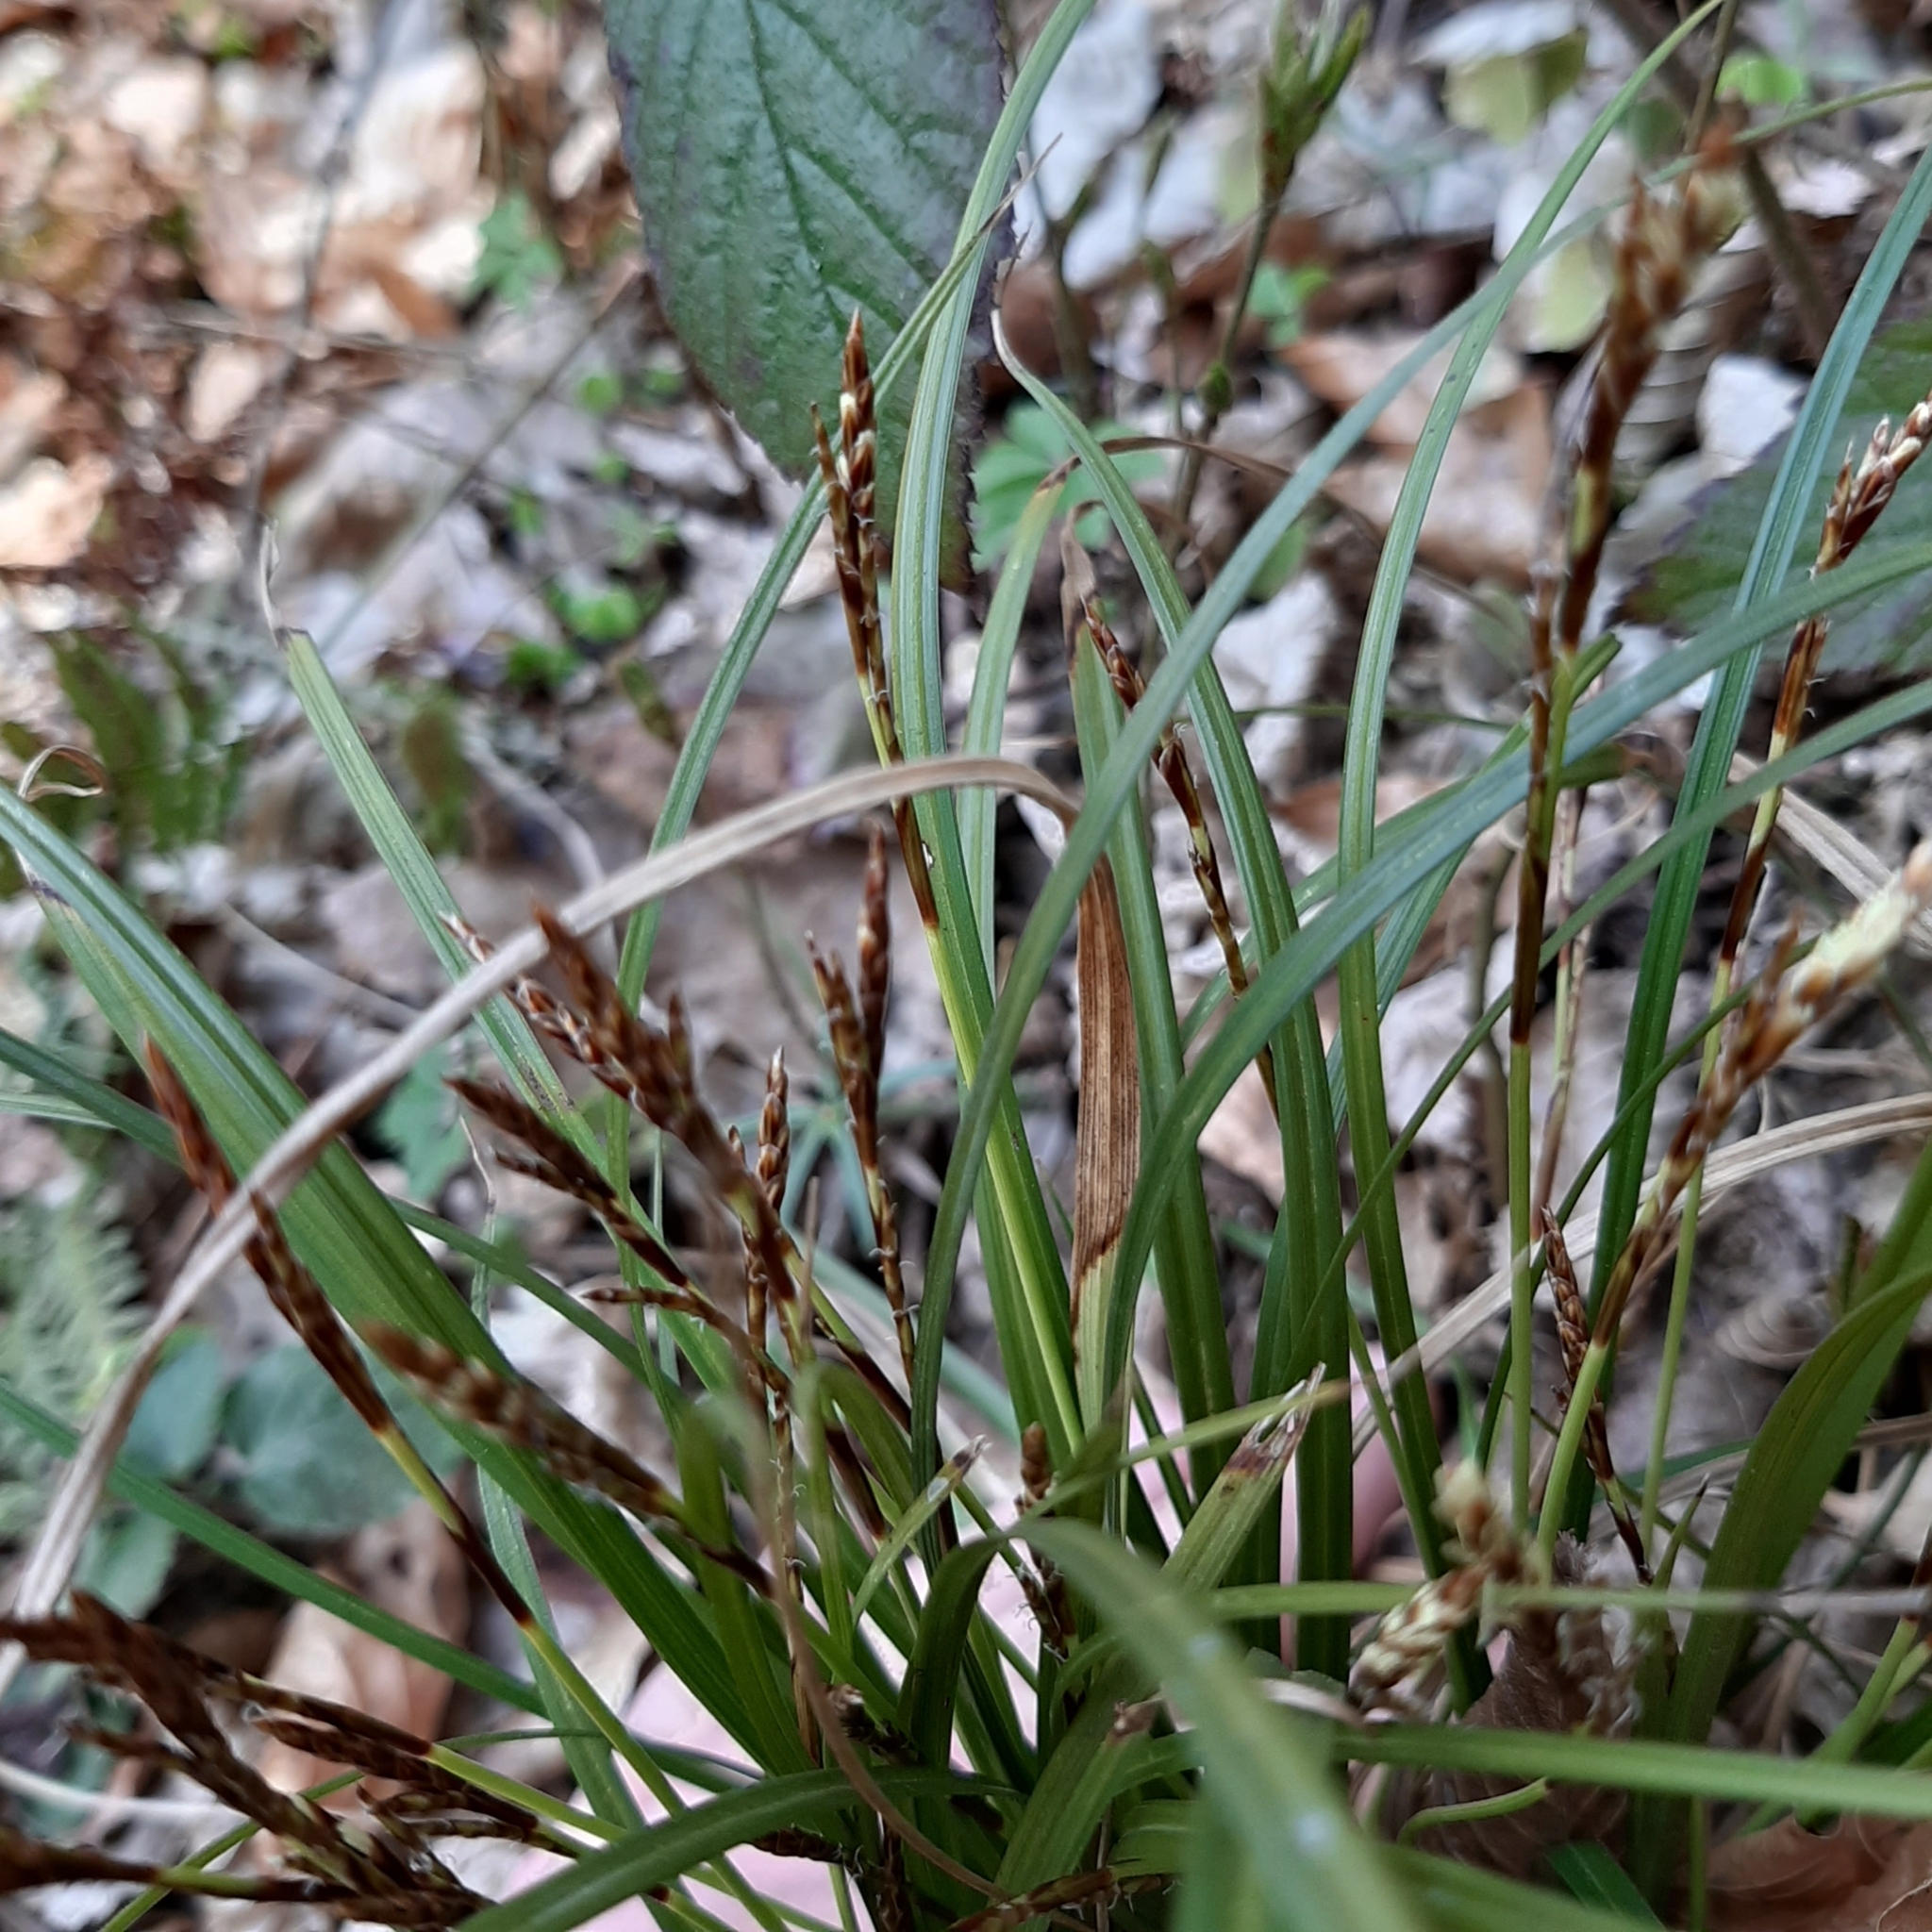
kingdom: Plantae
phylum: Tracheophyta
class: Liliopsida
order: Poales
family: Cyperaceae
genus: Carex
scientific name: Carex digitata
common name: Fingered sedge
